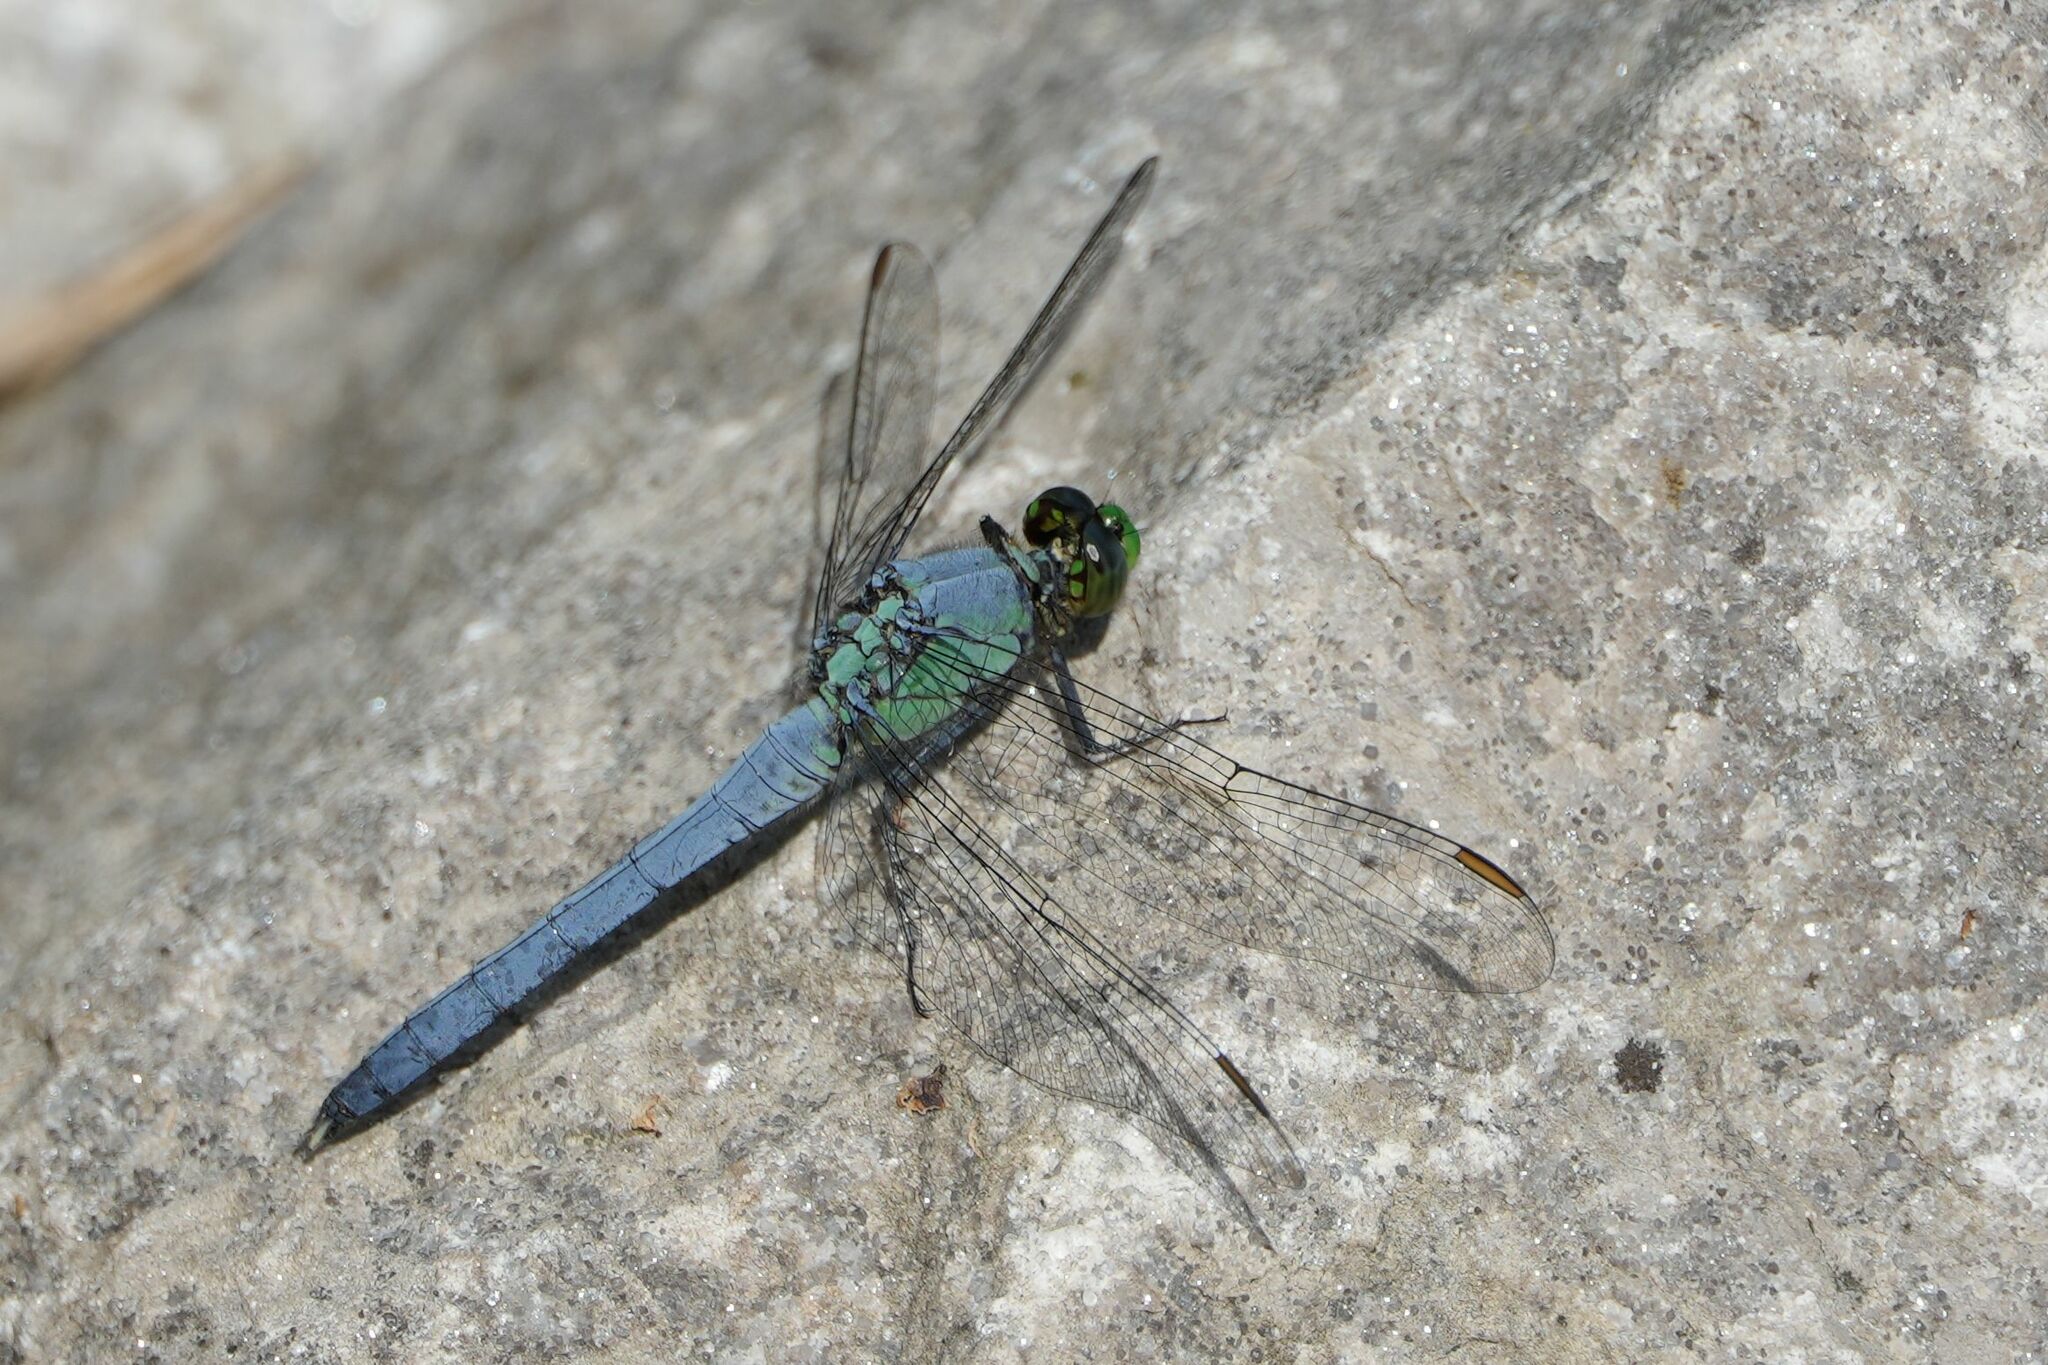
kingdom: Animalia
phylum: Arthropoda
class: Insecta
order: Odonata
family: Libellulidae
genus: Erythemis
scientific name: Erythemis simplicicollis
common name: Eastern pondhawk
